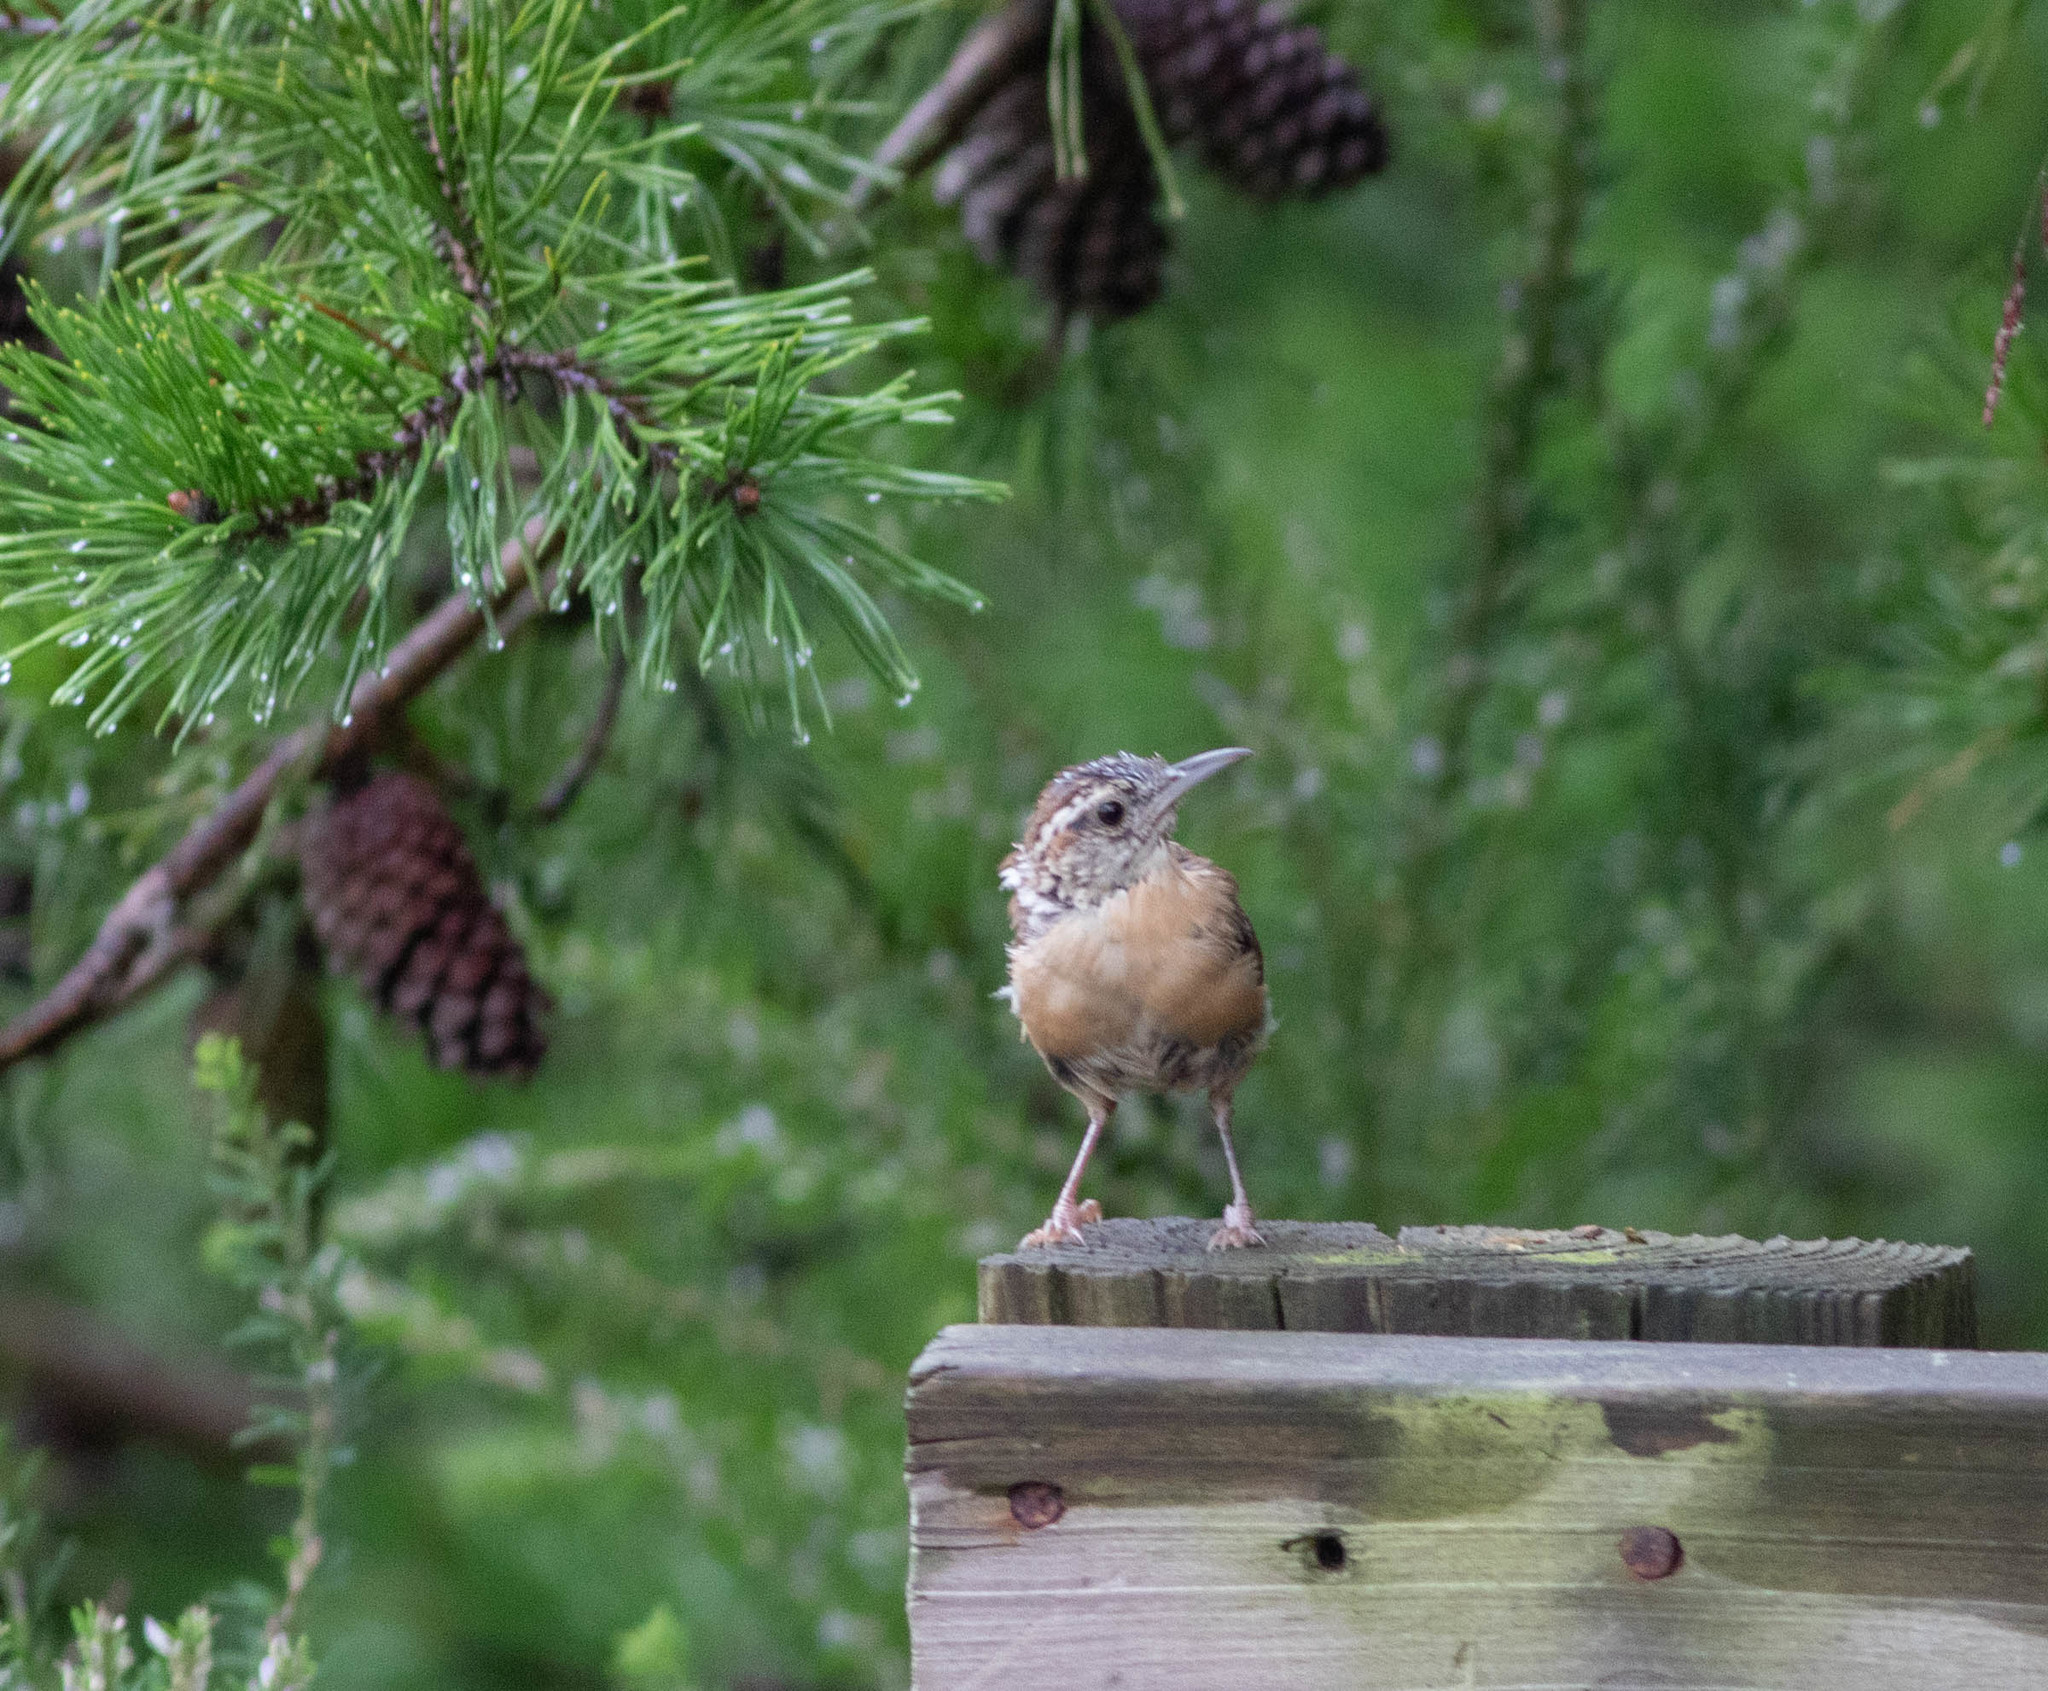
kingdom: Animalia
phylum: Chordata
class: Aves
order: Passeriformes
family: Troglodytidae
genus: Thryothorus
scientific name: Thryothorus ludovicianus
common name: Carolina wren
